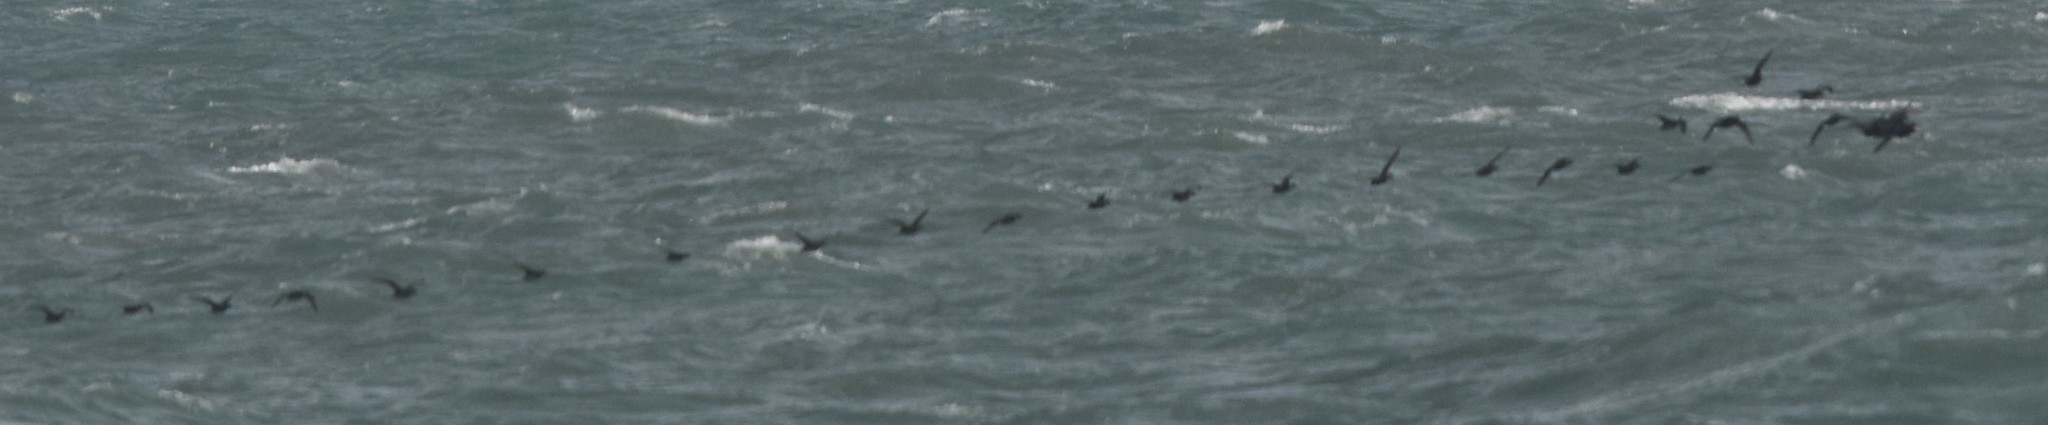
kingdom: Animalia
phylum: Chordata
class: Aves
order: Anseriformes
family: Anatidae
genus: Melanitta
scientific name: Melanitta americana
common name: Black scoter
